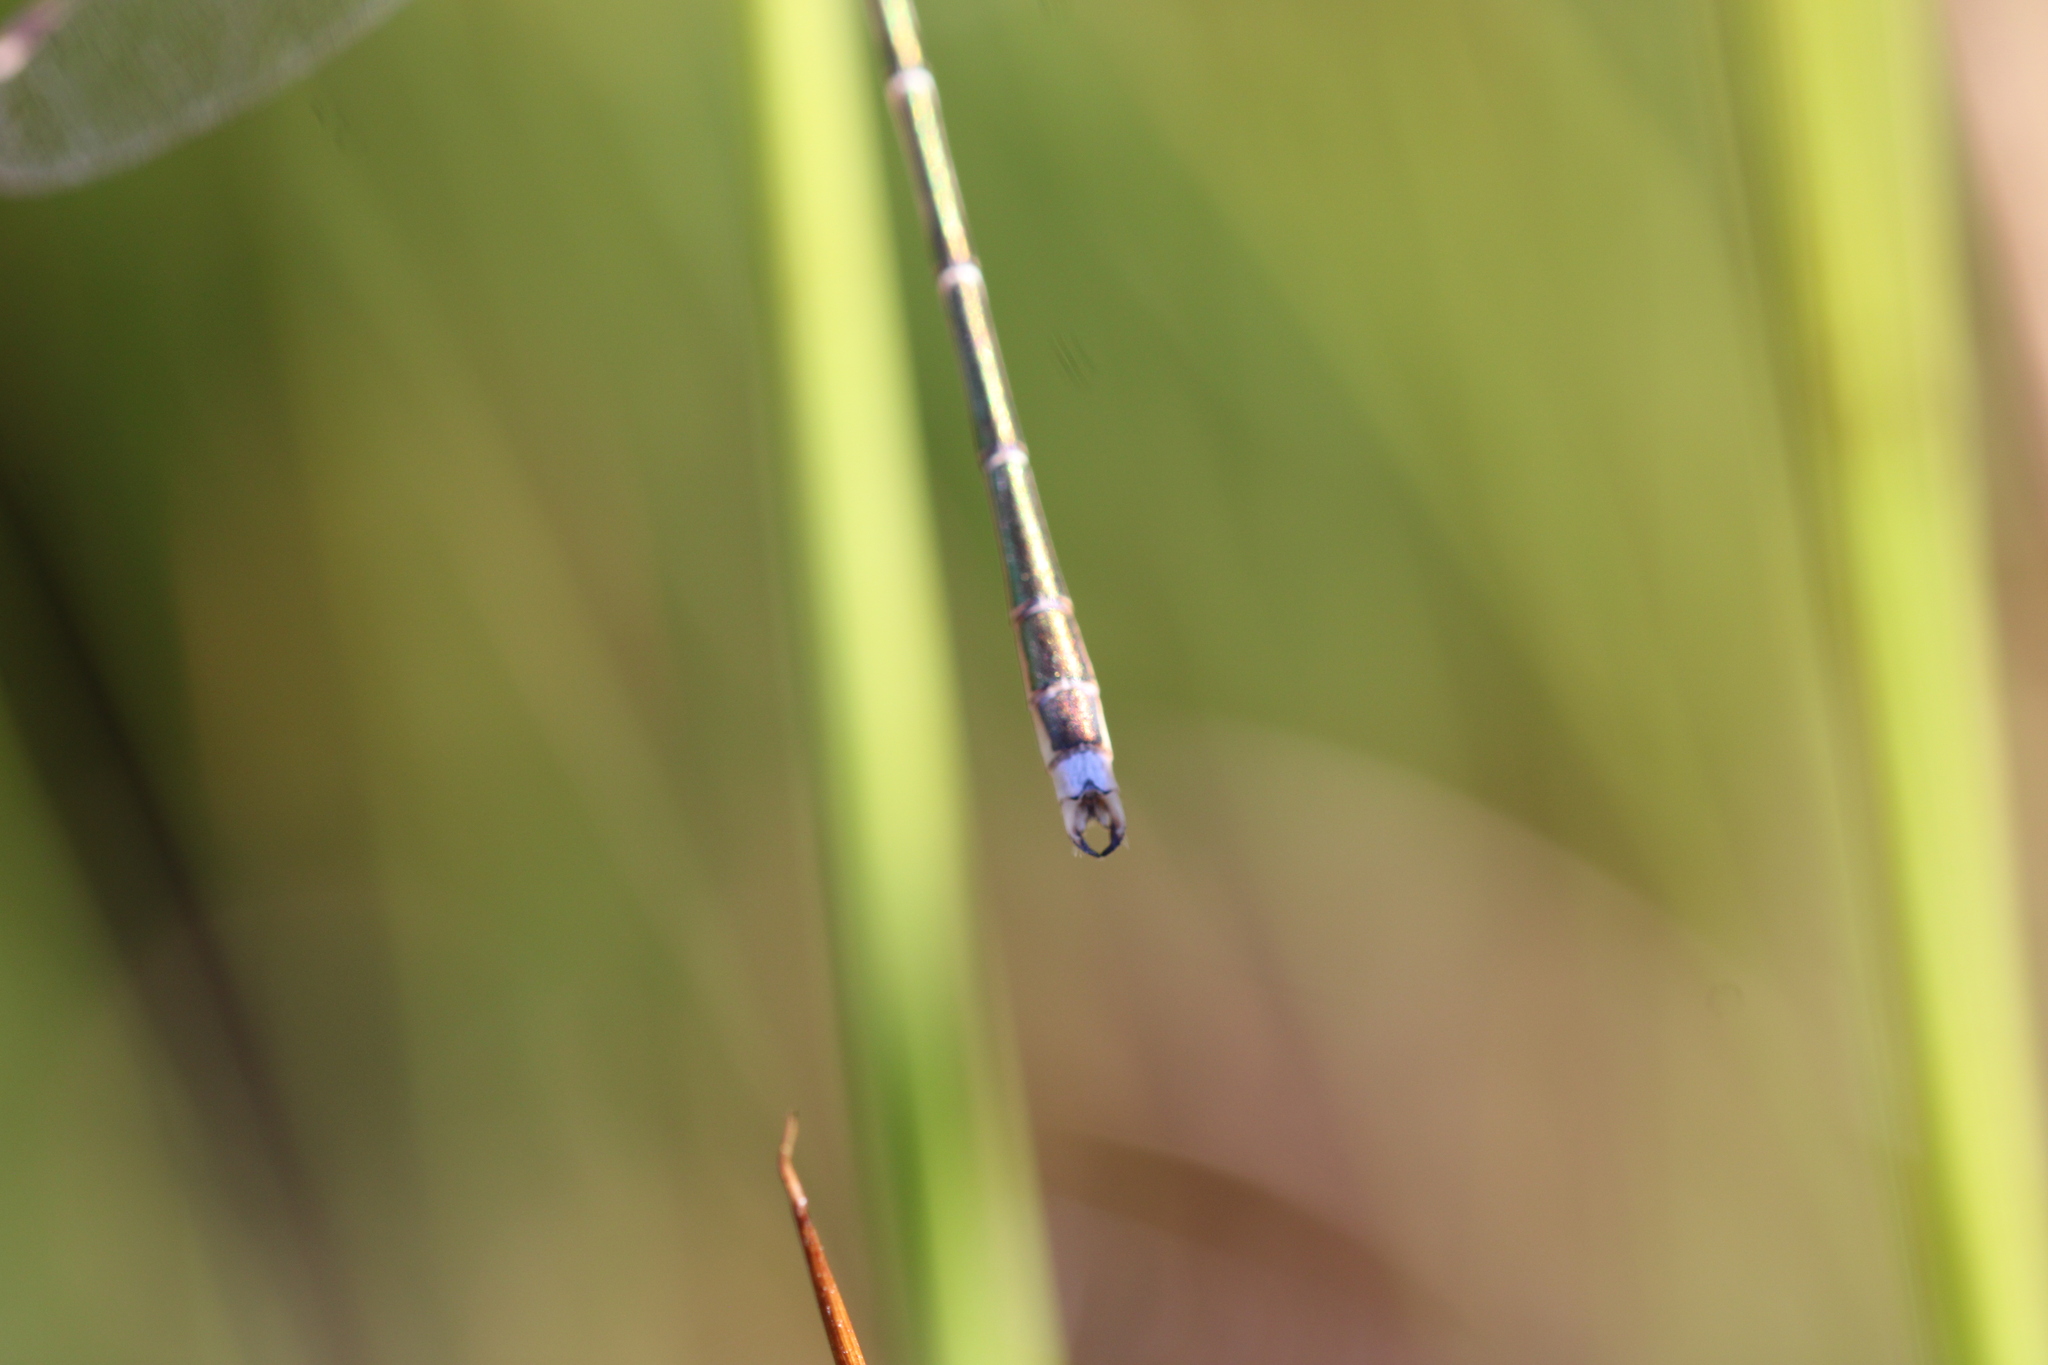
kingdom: Animalia
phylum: Arthropoda
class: Insecta
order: Odonata
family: Lestidae
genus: Lestes
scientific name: Lestes barbarus
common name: Migrant spreadwing
